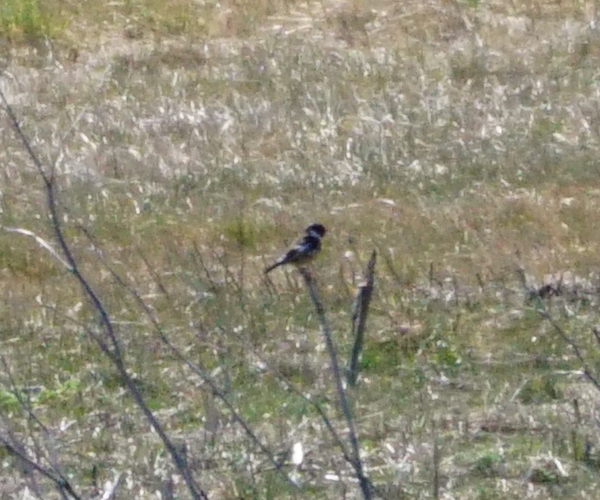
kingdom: Animalia
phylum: Chordata
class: Aves
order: Passeriformes
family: Muscicapidae
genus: Saxicola
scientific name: Saxicola rubicola
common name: European stonechat
